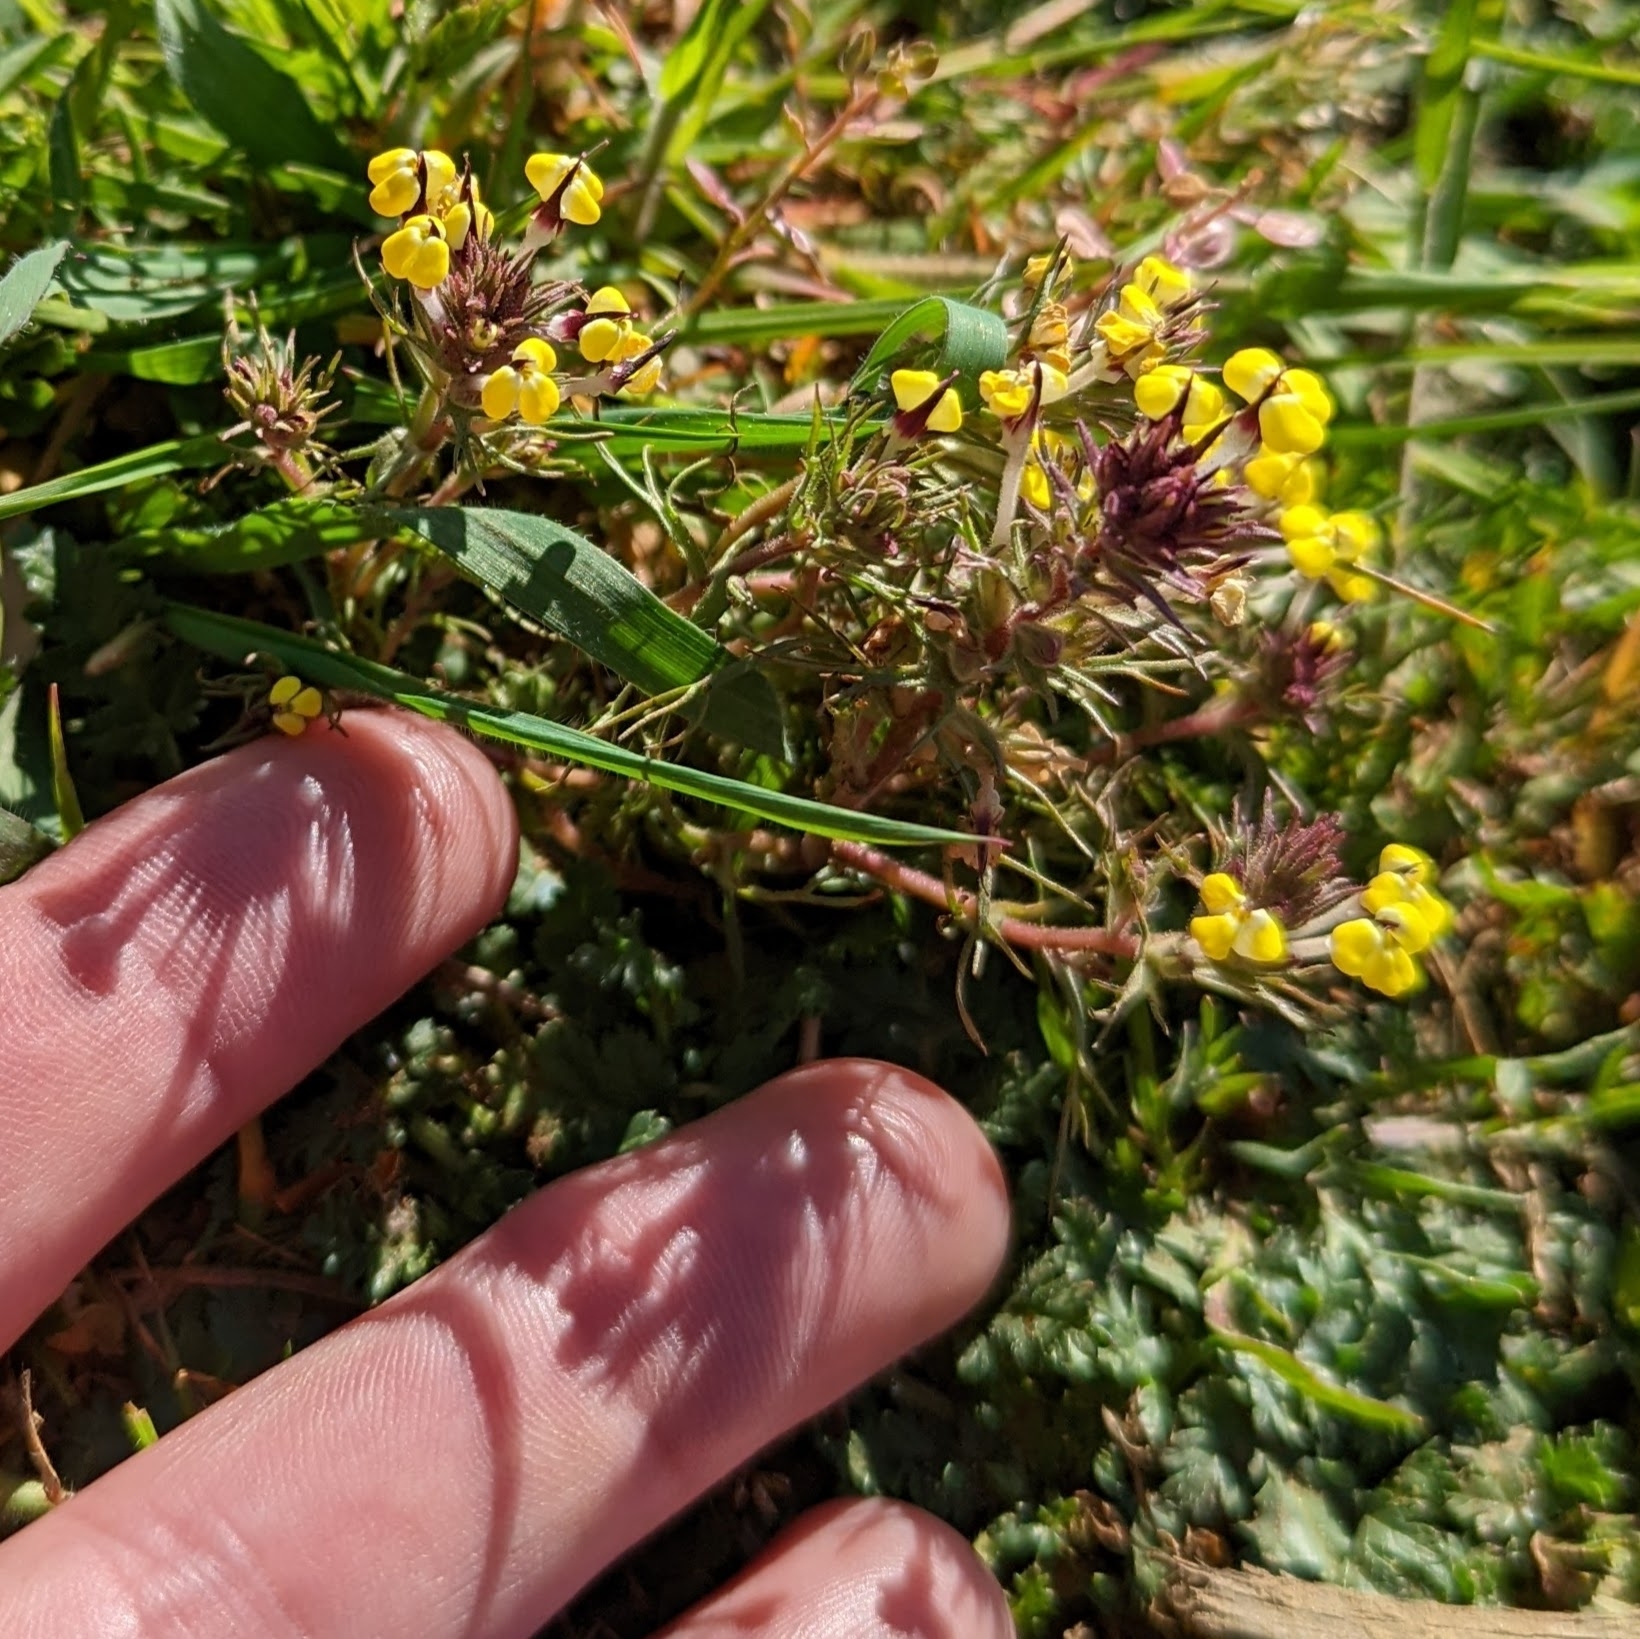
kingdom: Plantae
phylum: Tracheophyta
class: Magnoliopsida
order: Lamiales
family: Orobanchaceae
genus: Triphysaria
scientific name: Triphysaria eriantha
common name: Johnny-tuck
